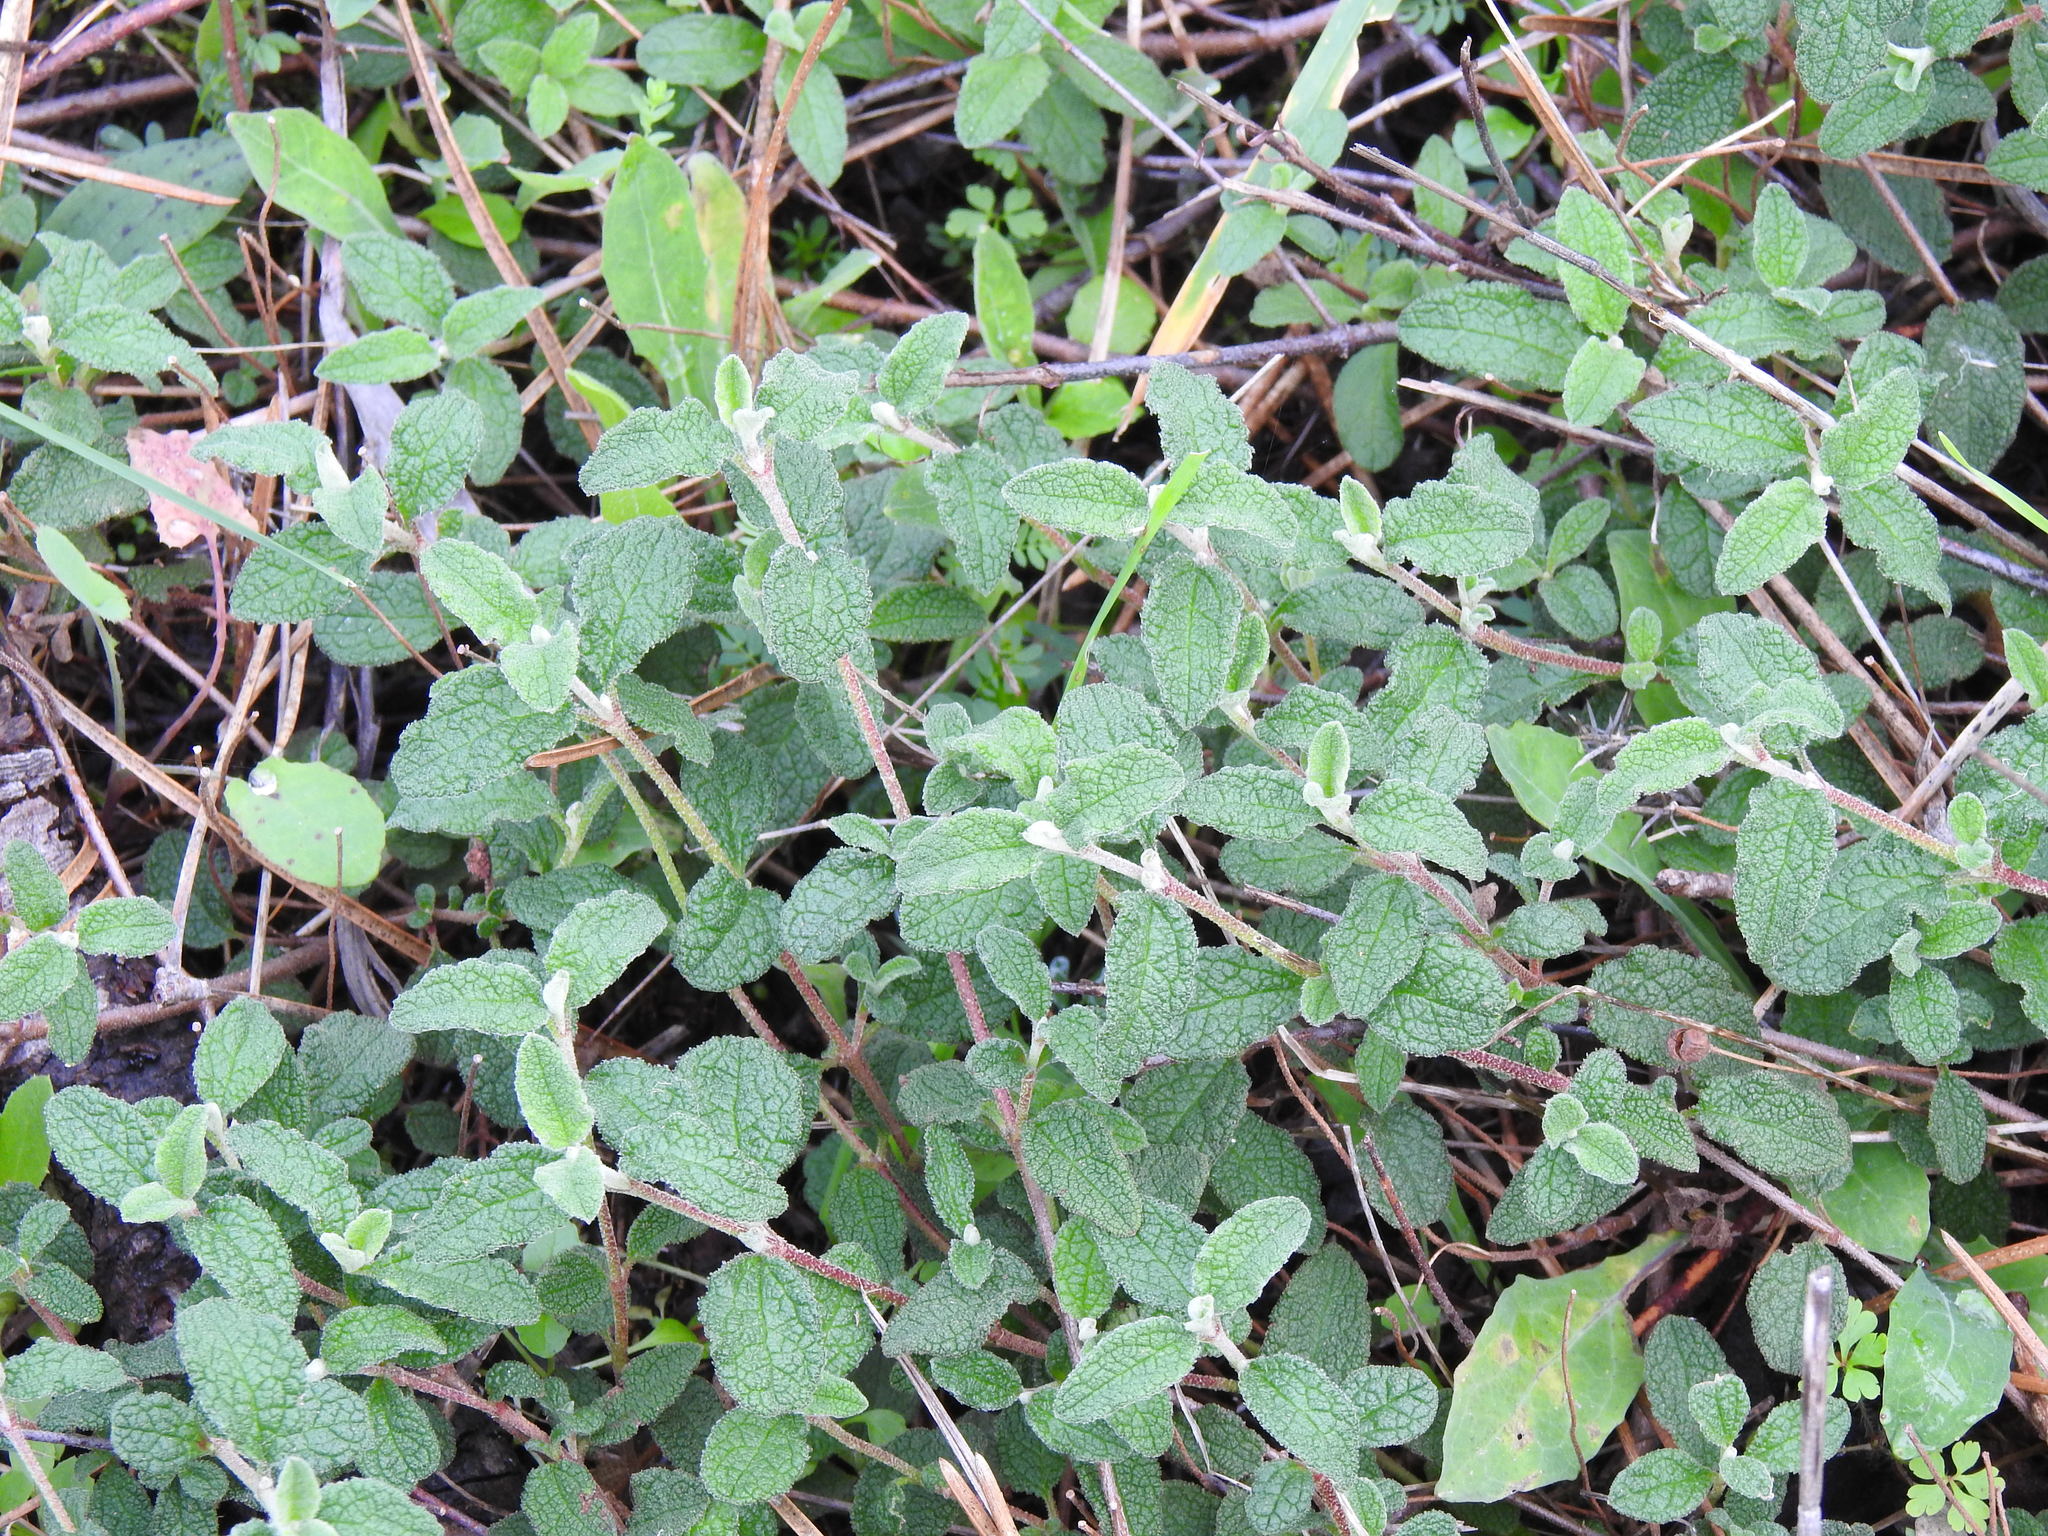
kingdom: Plantae
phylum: Tracheophyta
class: Magnoliopsida
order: Malvales
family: Cistaceae
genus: Cistus
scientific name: Cistus salviifolius
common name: Salvia cistus
